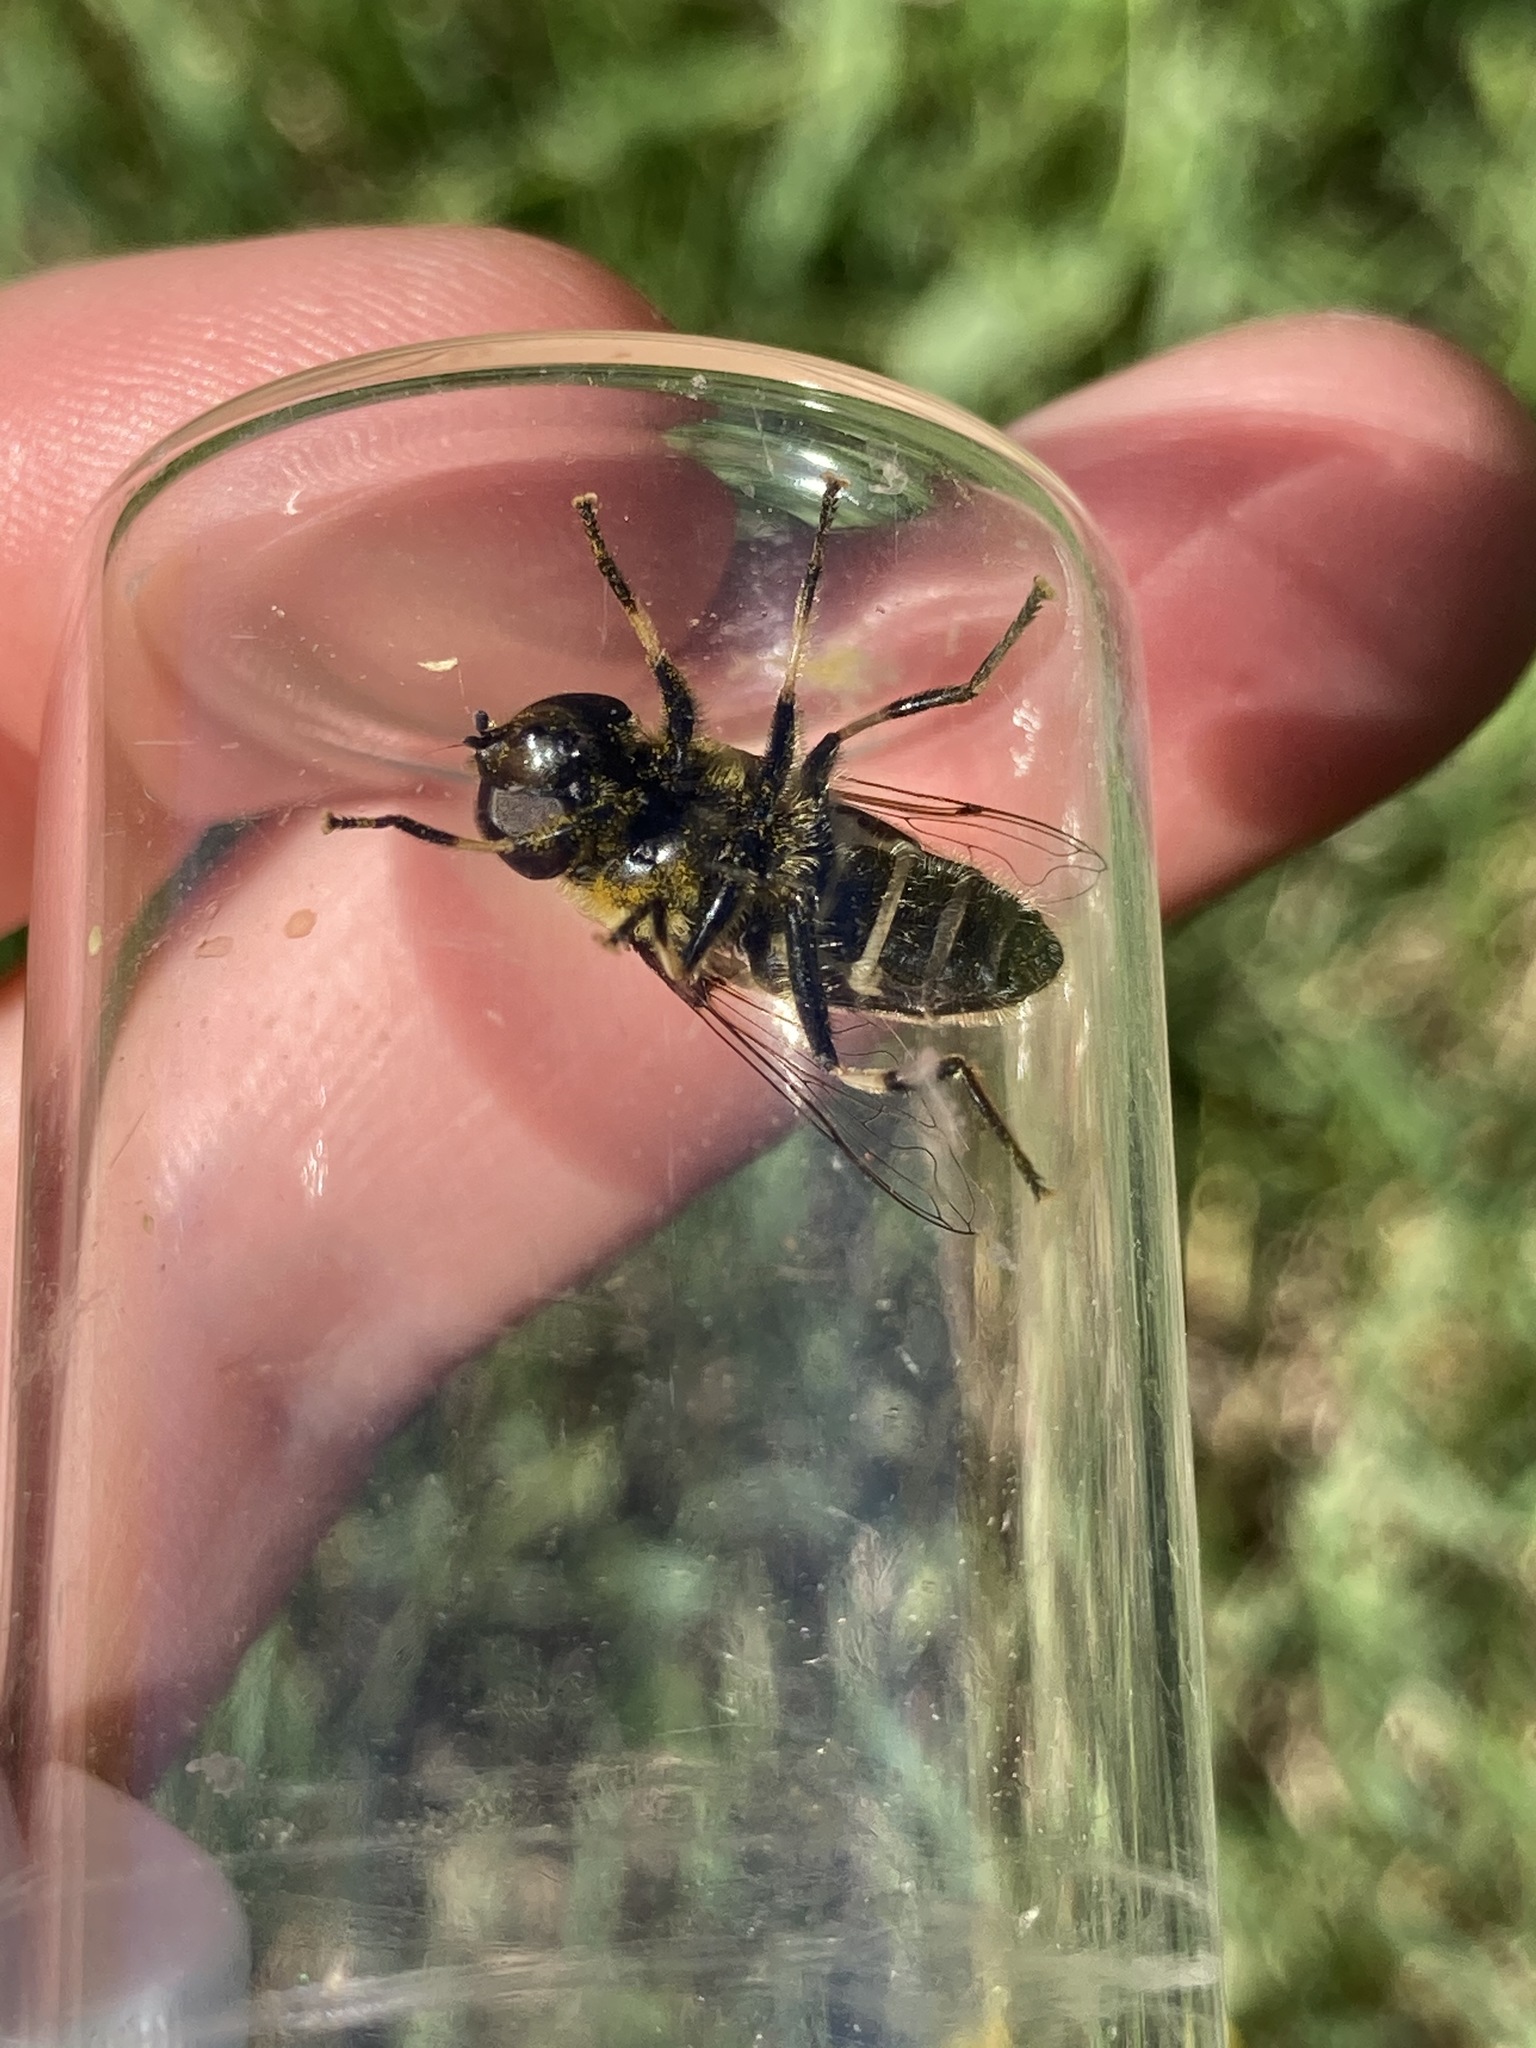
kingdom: Animalia
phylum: Arthropoda
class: Insecta
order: Diptera
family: Syrphidae
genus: Eristalis
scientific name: Eristalis dimidiata
